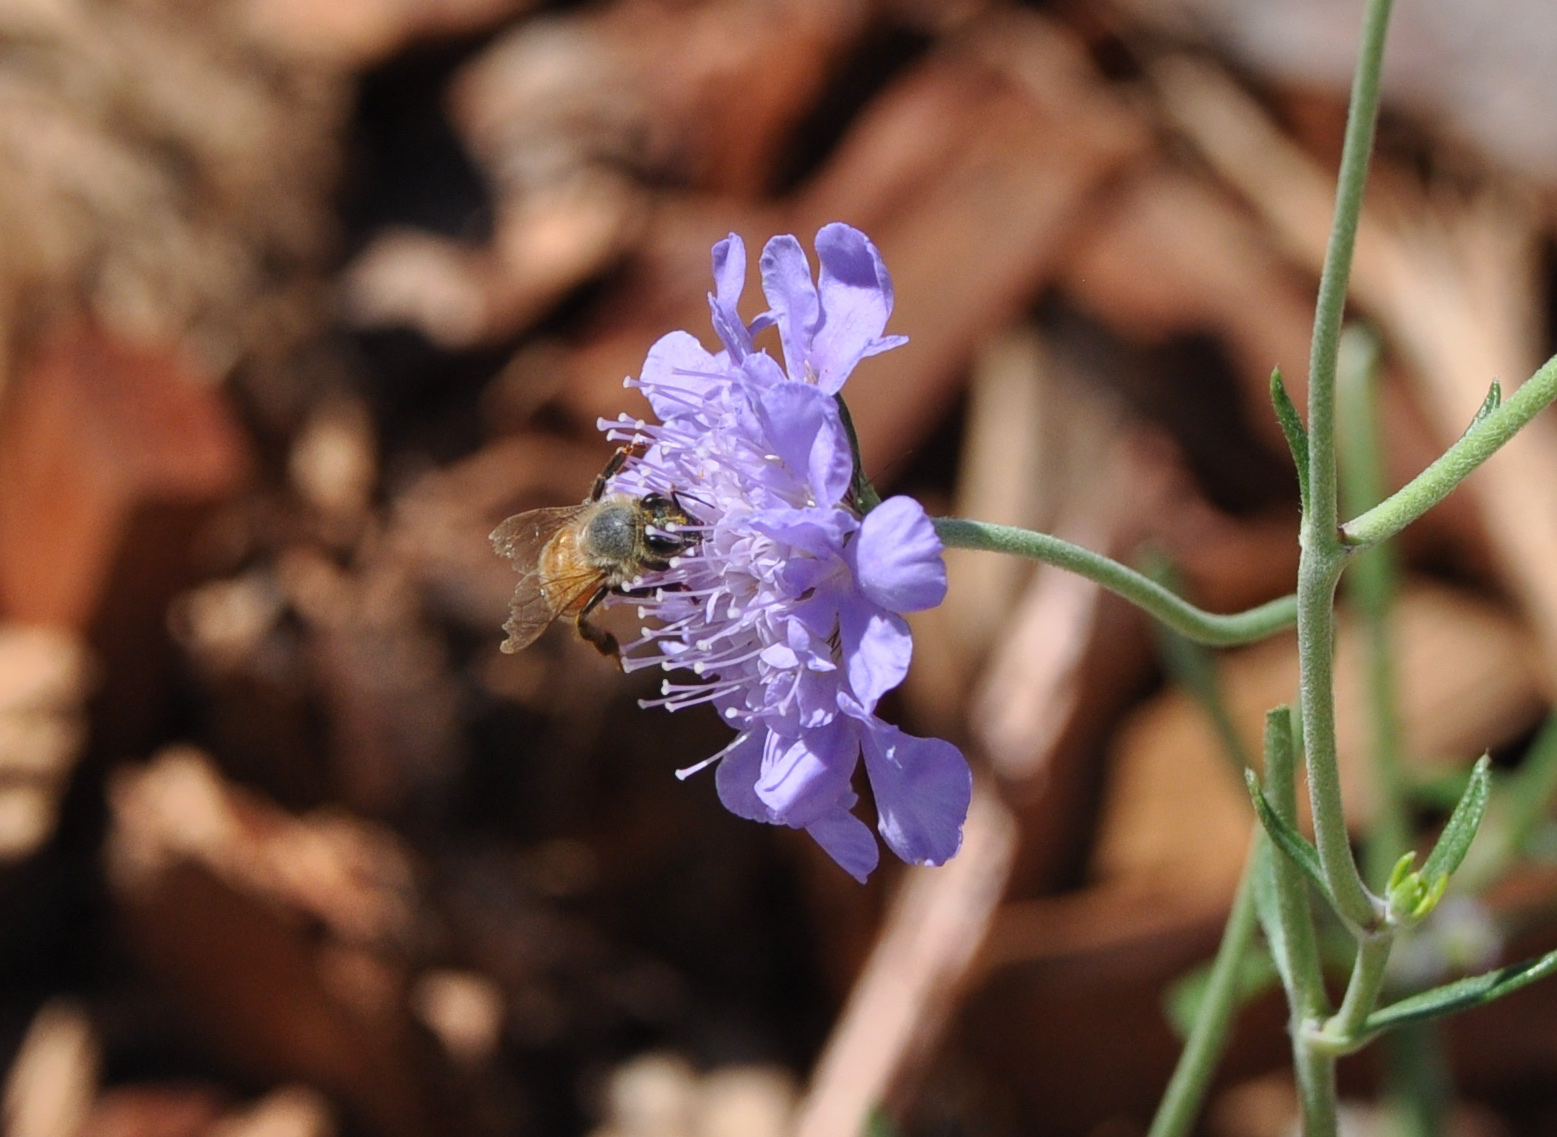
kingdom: Animalia
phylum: Arthropoda
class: Insecta
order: Hymenoptera
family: Apidae
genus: Apis
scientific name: Apis mellifera
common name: Honey bee
